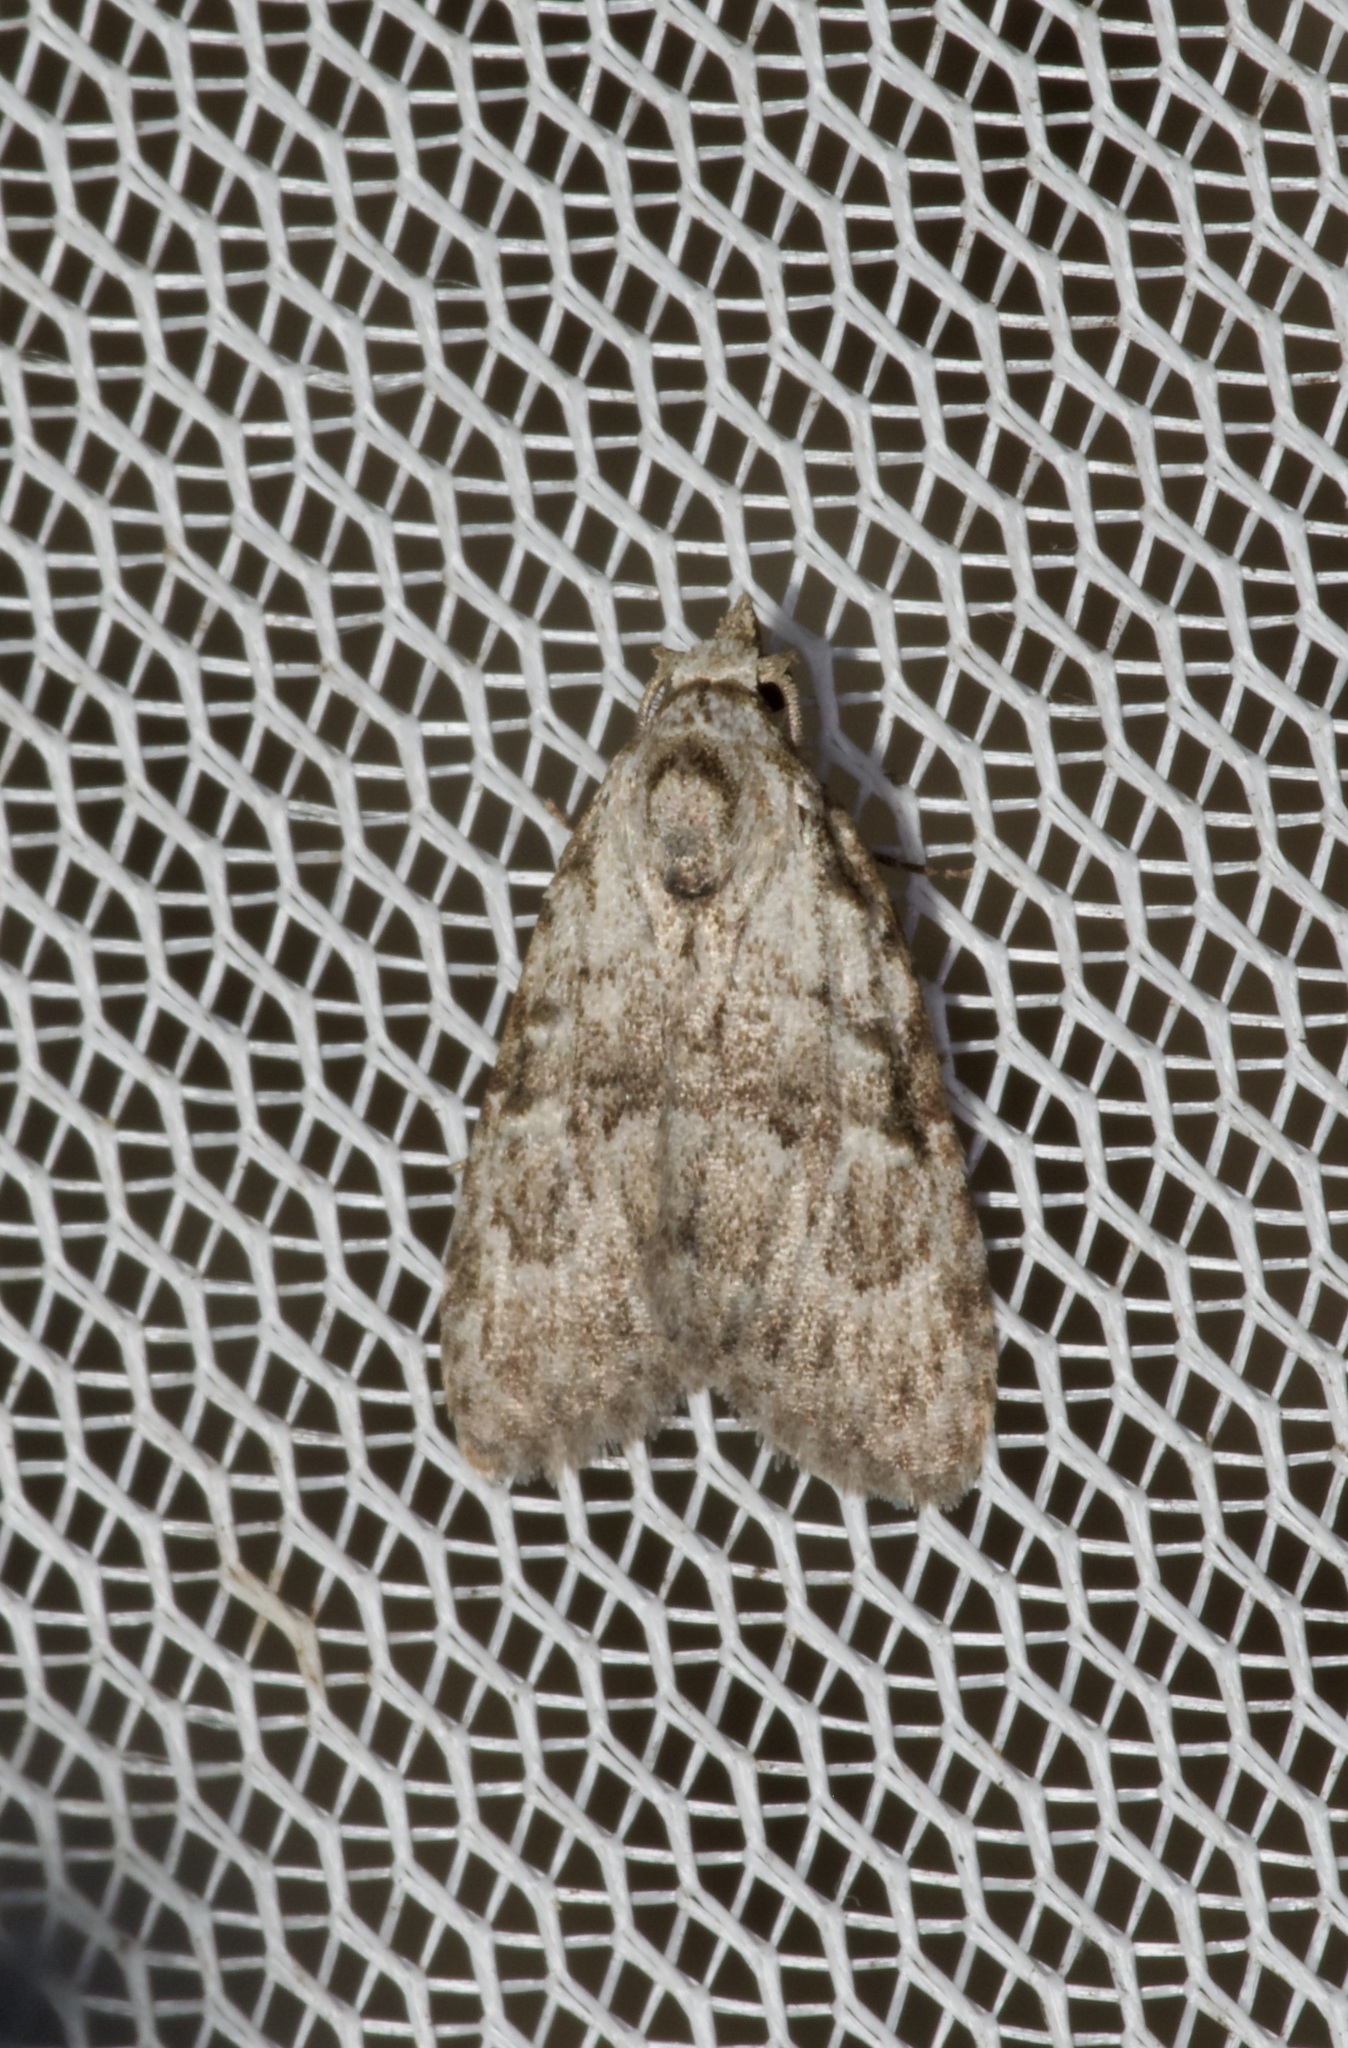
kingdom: Animalia
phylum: Arthropoda
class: Insecta
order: Lepidoptera
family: Nolidae
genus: Meganola
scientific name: Meganola minuscula
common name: Confused meganola moth
